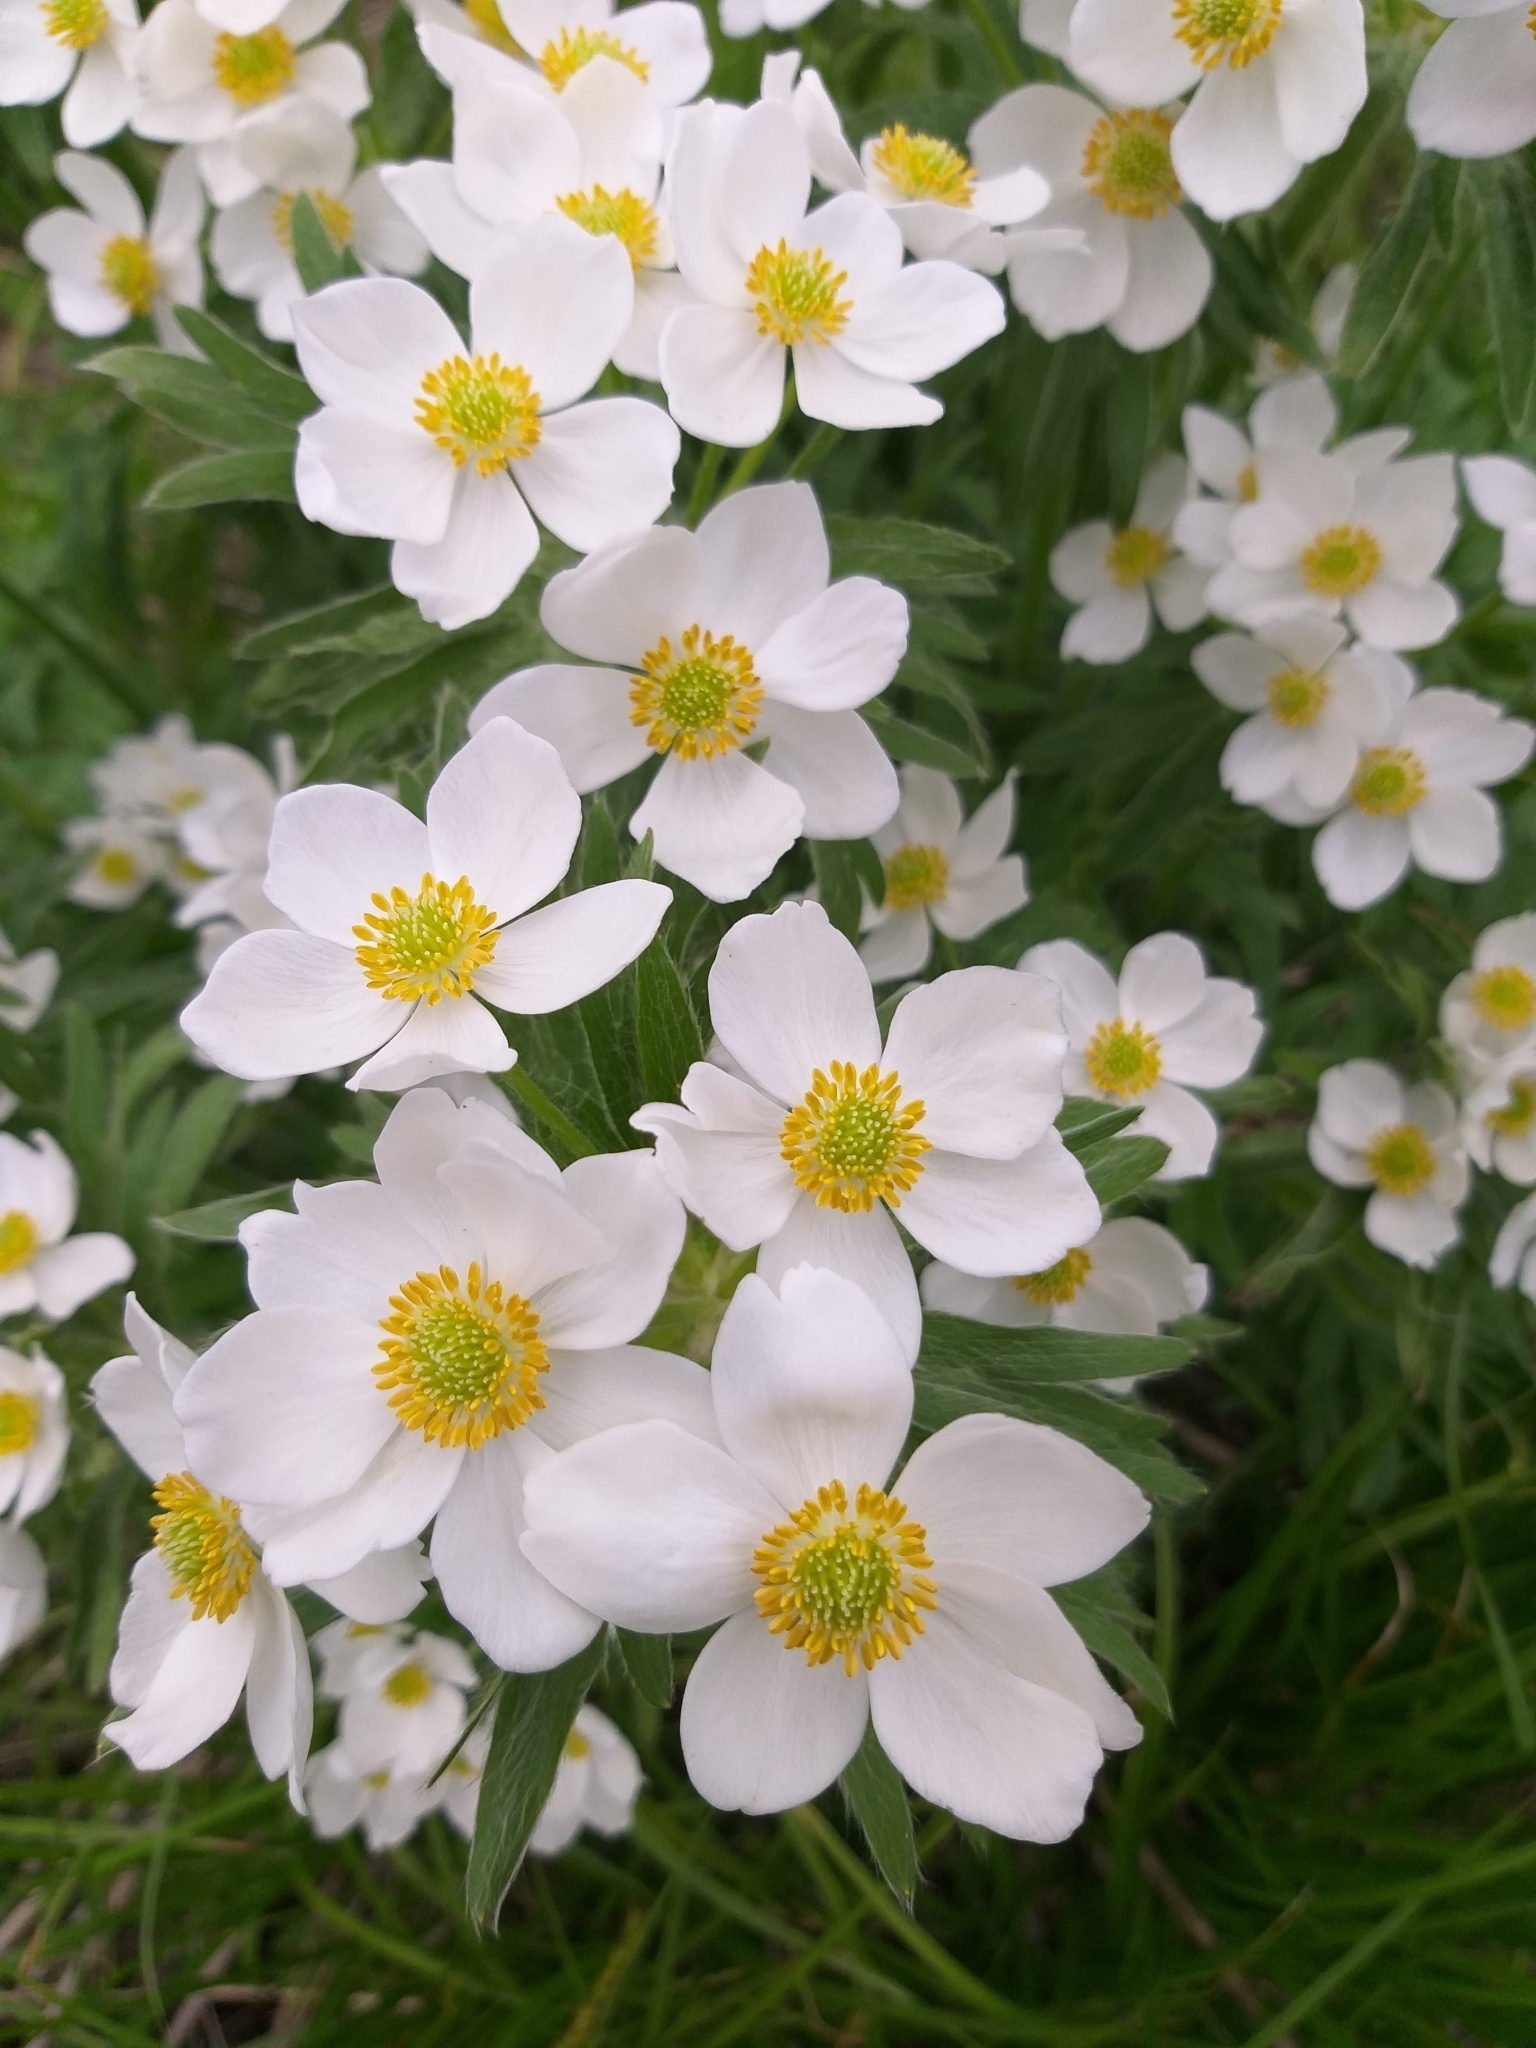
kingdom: Plantae
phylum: Tracheophyta
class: Magnoliopsida
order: Ranunculales
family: Ranunculaceae
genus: Anemonastrum
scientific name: Anemonastrum narcissiflorum
